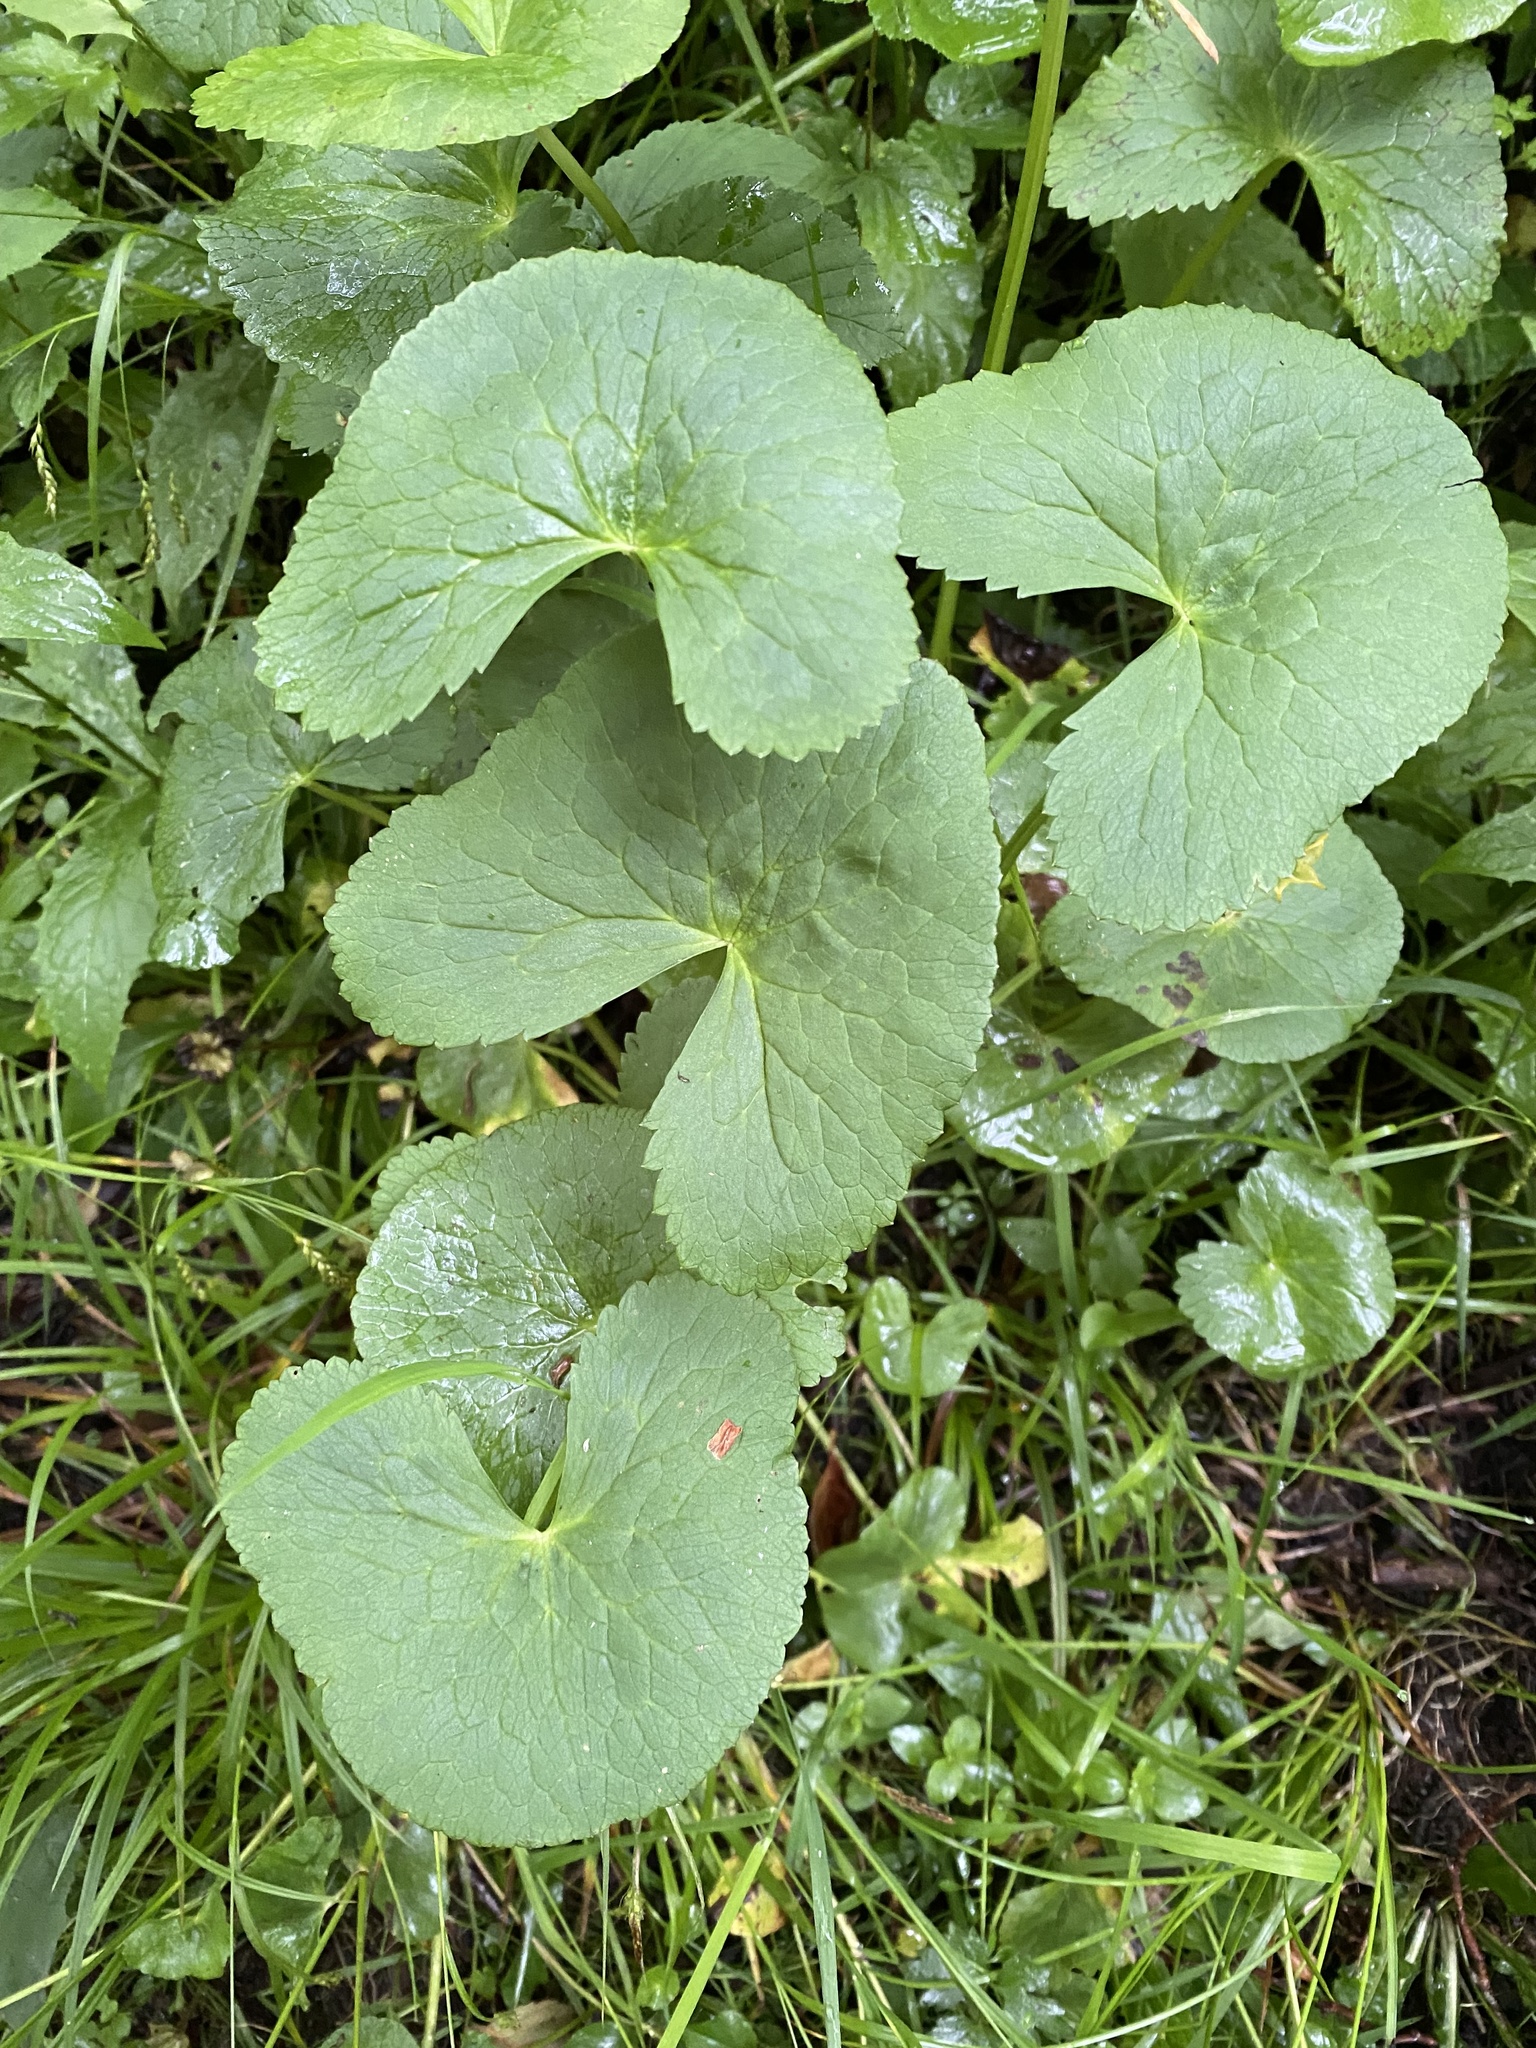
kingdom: Plantae
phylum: Tracheophyta
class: Magnoliopsida
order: Ranunculales
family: Ranunculaceae
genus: Caltha
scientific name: Caltha palustris
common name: Marsh marigold
